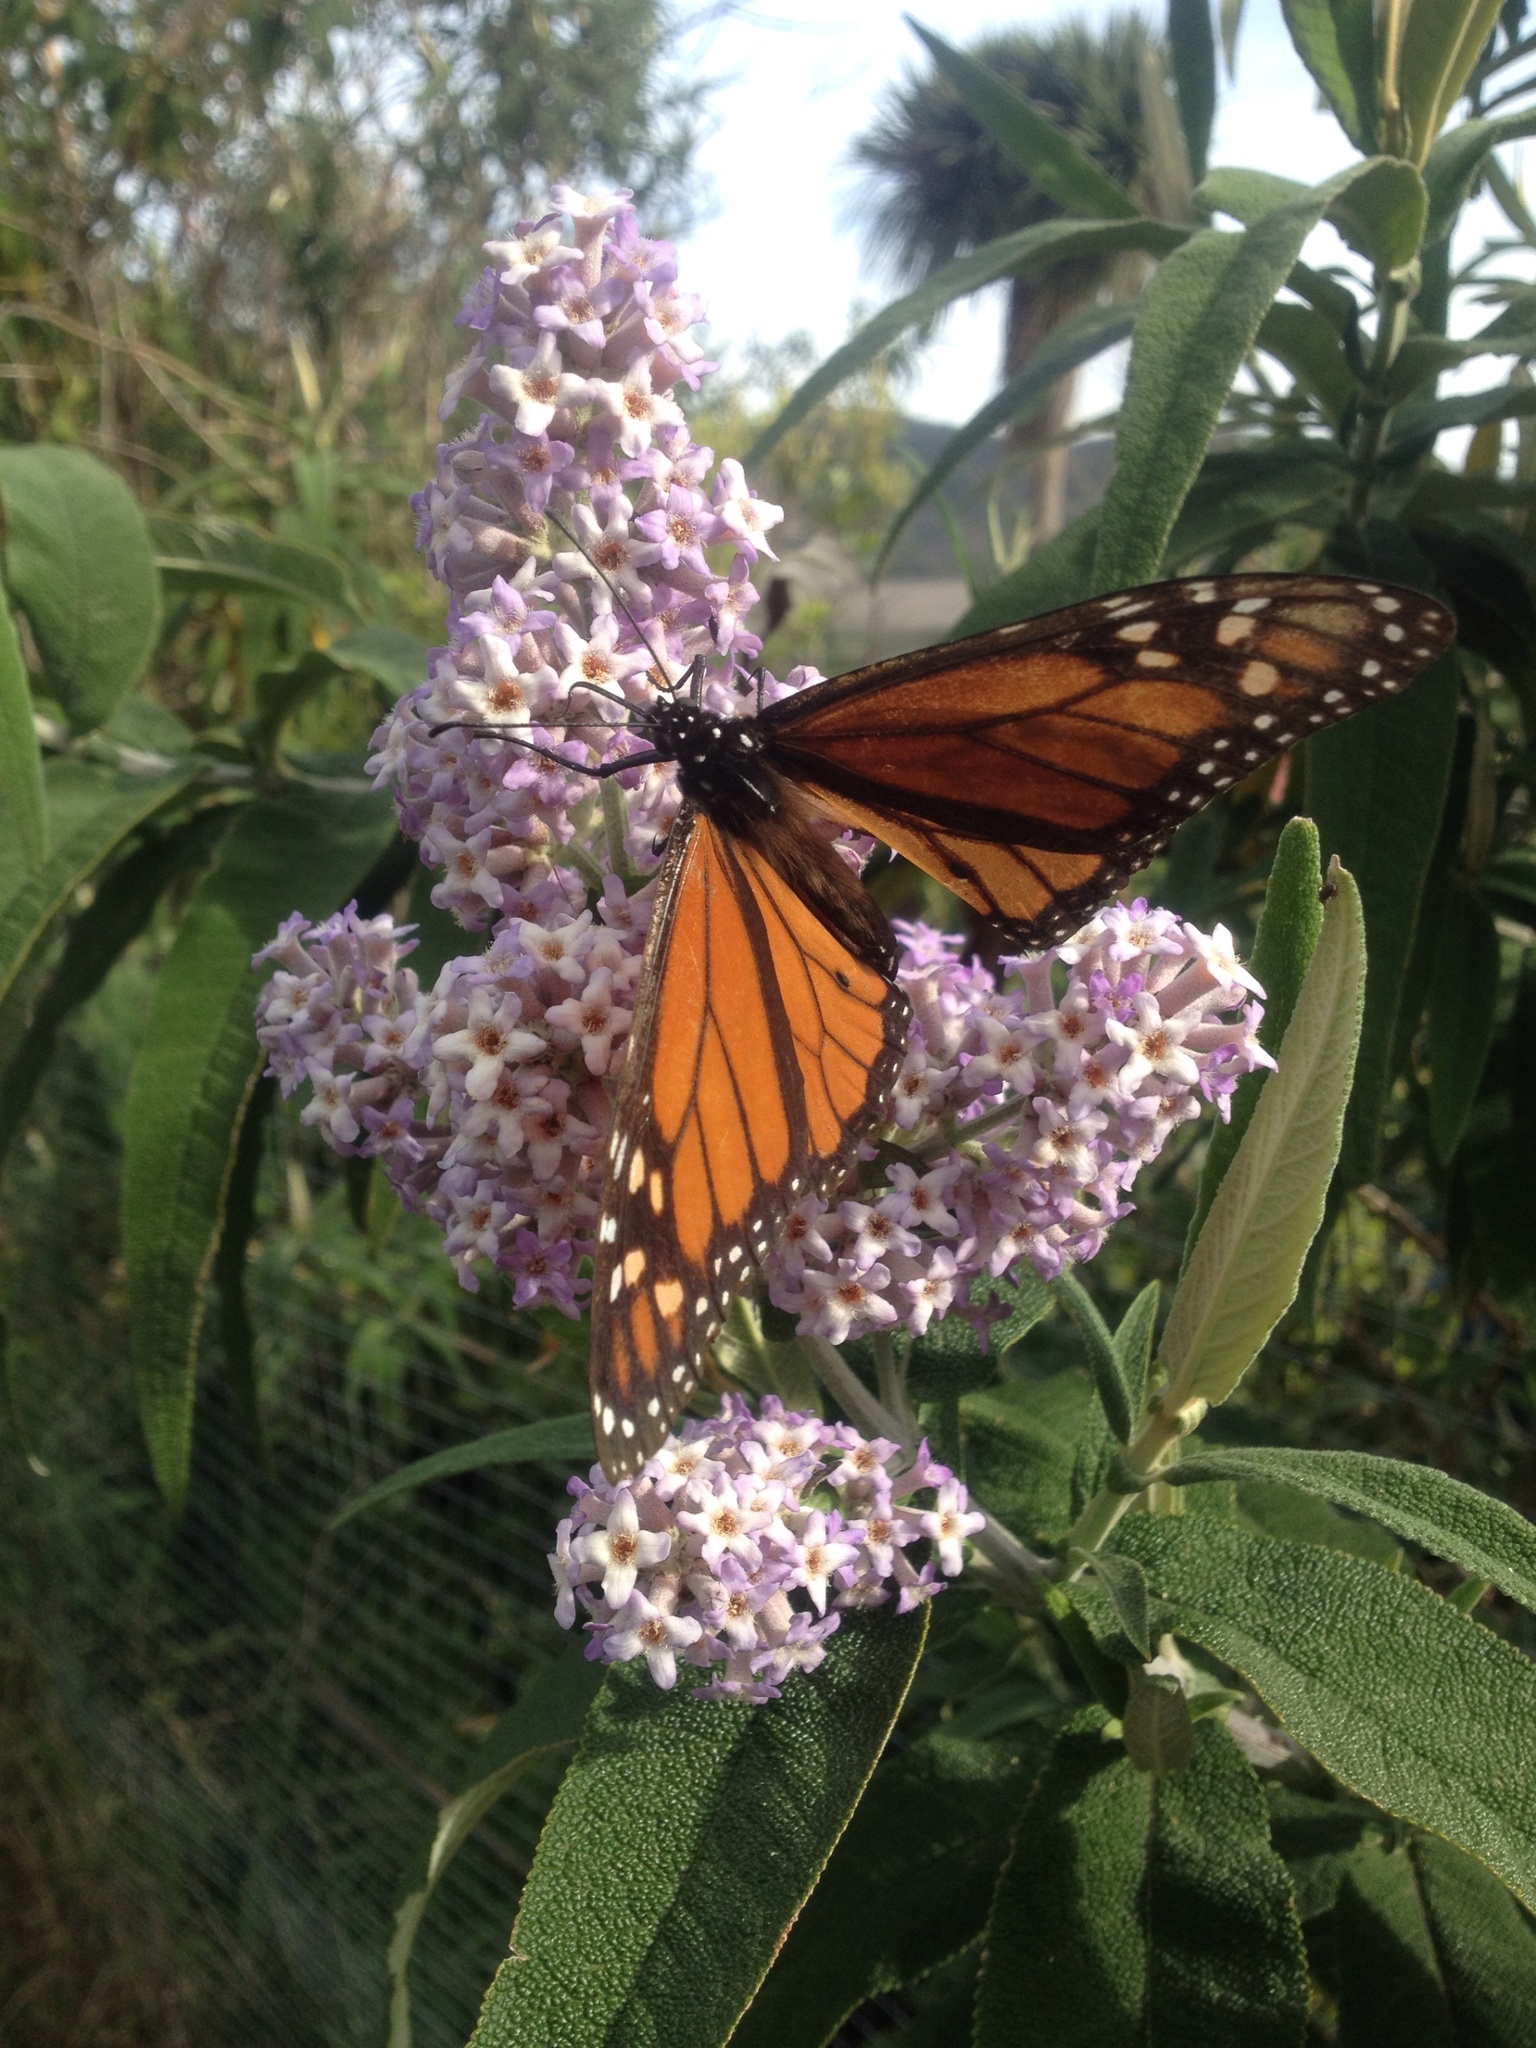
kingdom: Animalia
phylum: Arthropoda
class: Insecta
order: Lepidoptera
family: Nymphalidae
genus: Danaus
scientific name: Danaus plexippus
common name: Monarch
